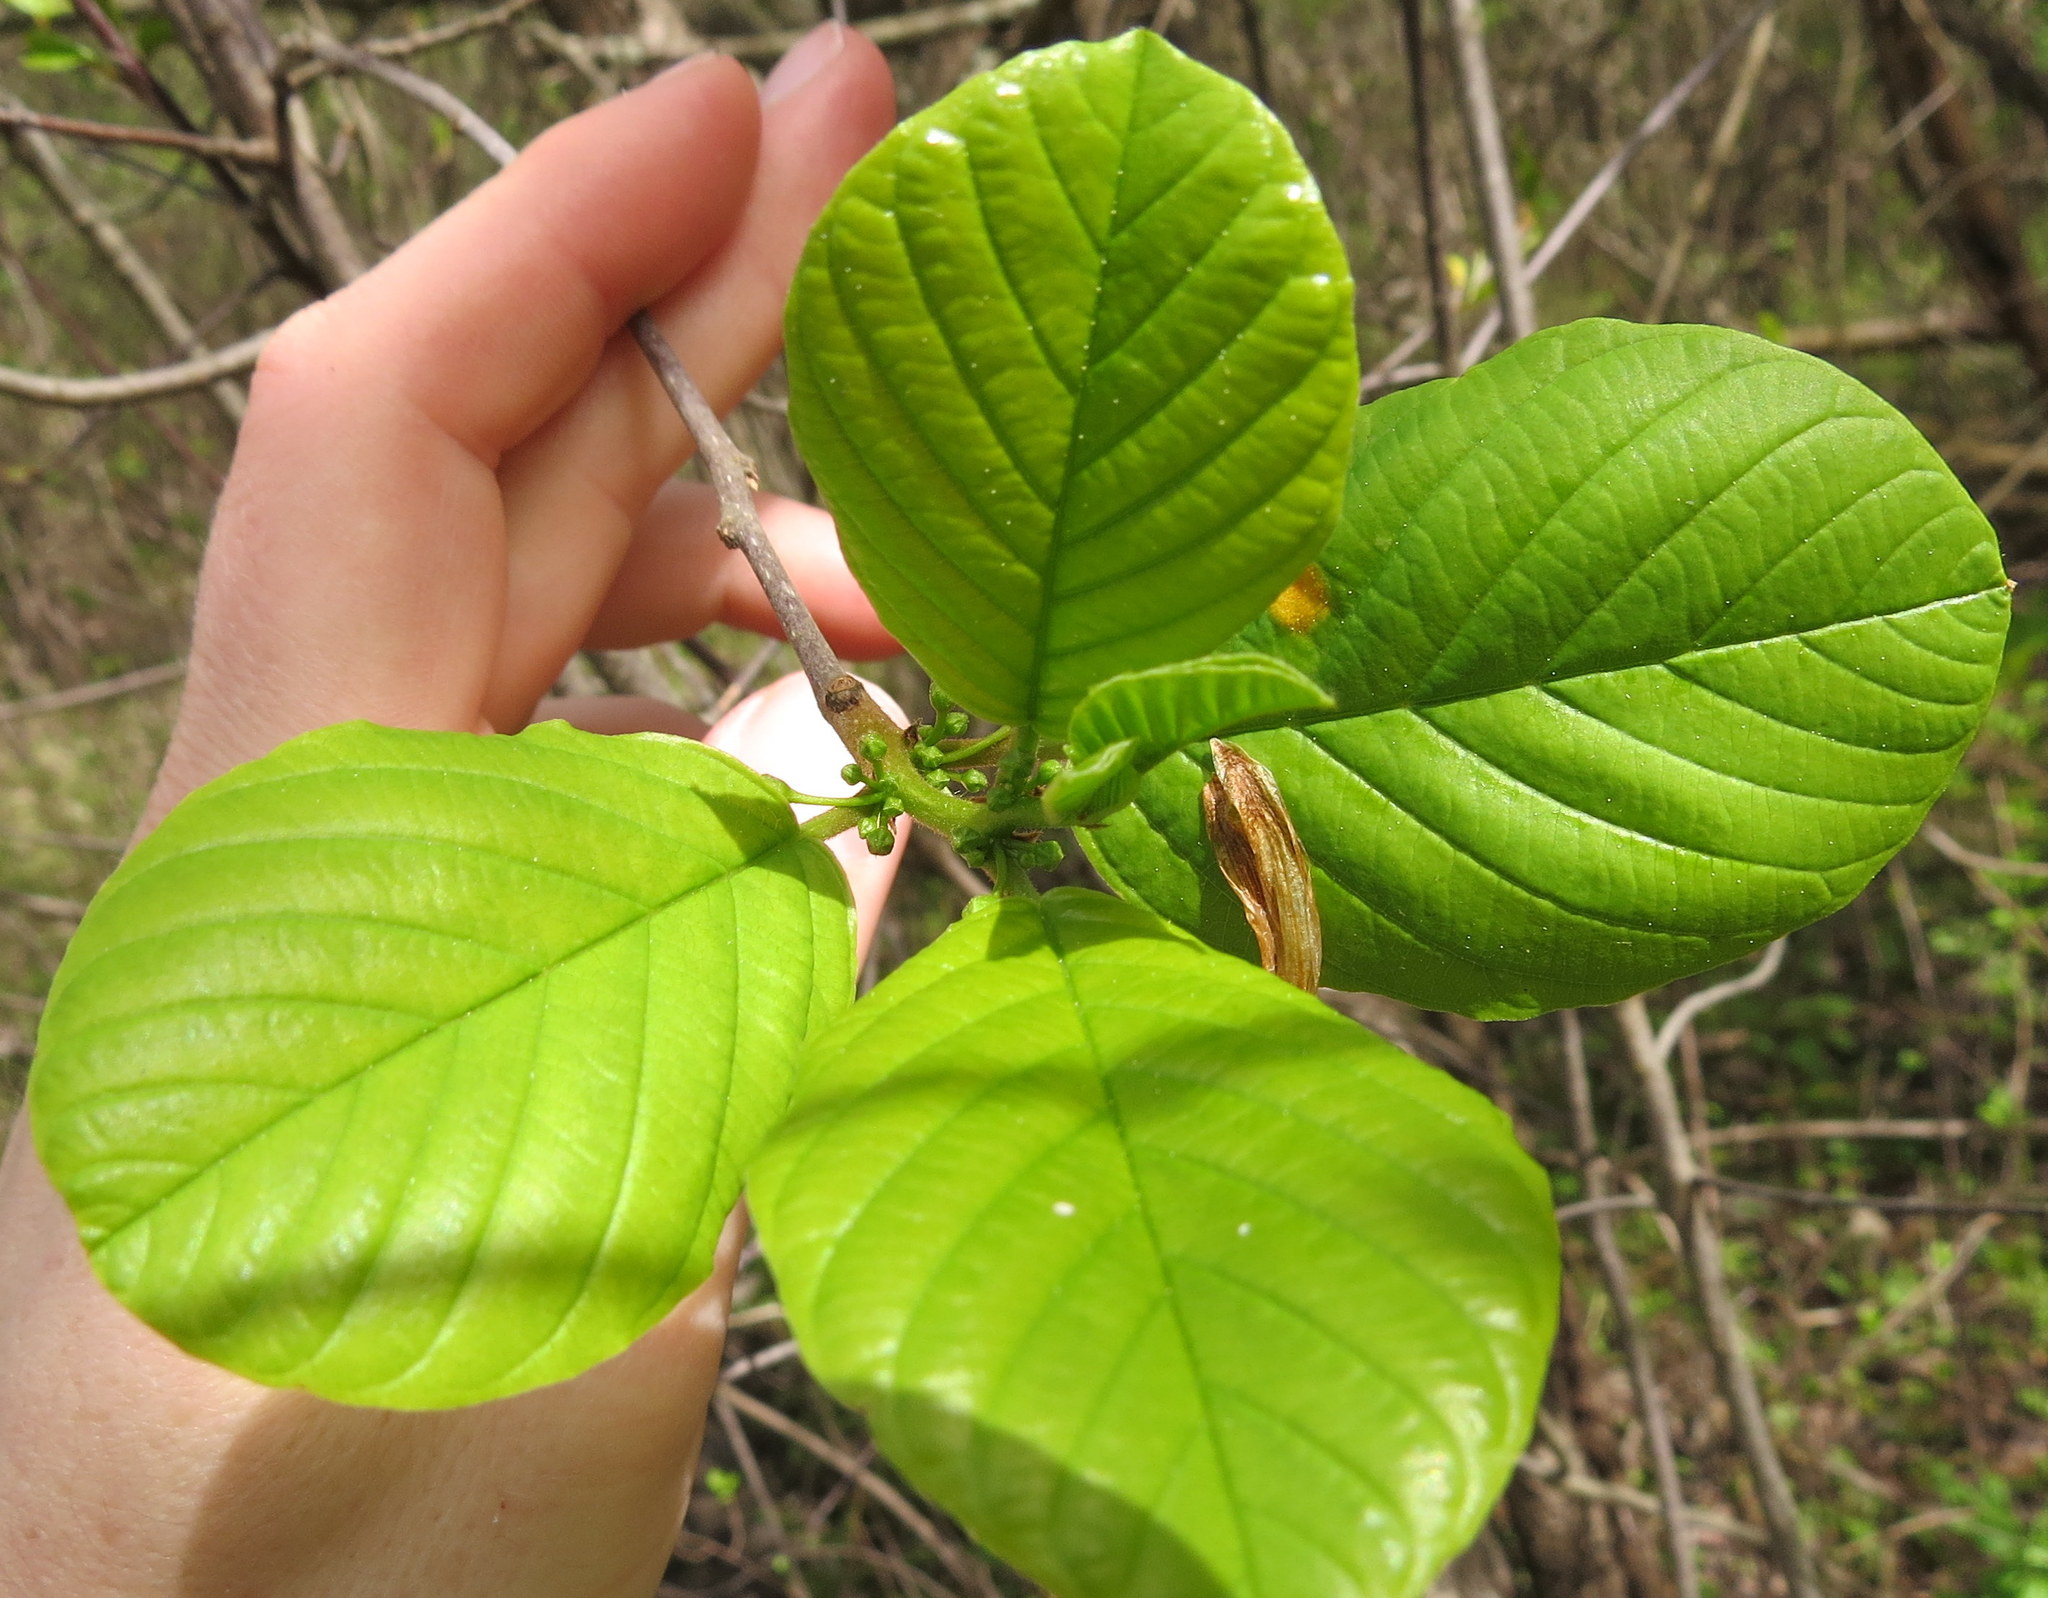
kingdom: Plantae
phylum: Tracheophyta
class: Magnoliopsida
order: Rosales
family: Rhamnaceae
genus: Frangula
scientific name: Frangula alnus
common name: Alder buckthorn
